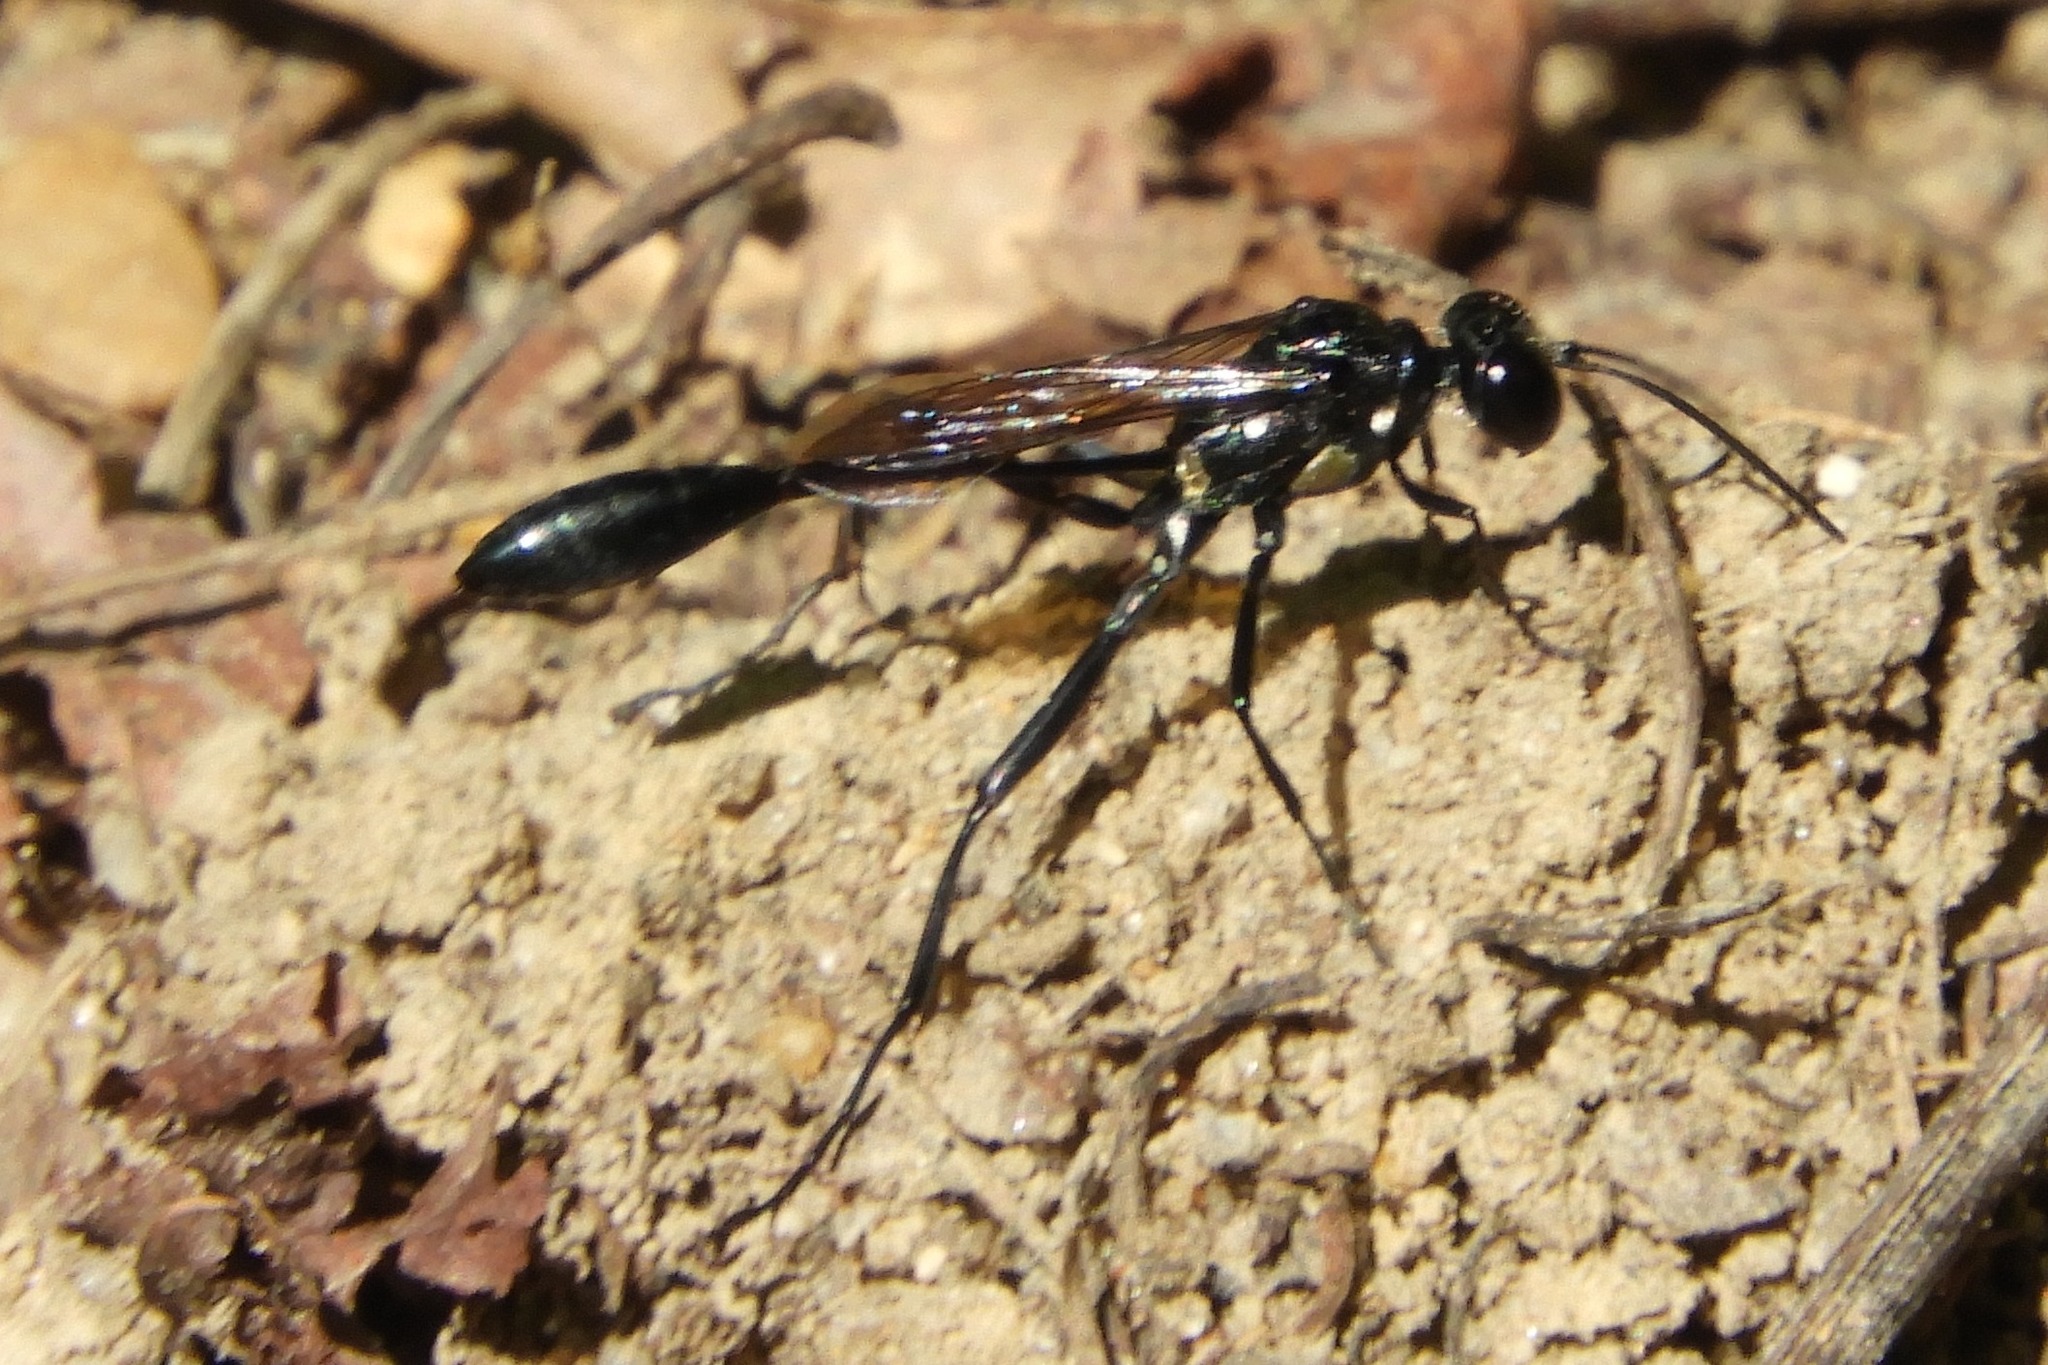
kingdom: Animalia
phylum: Arthropoda
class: Insecta
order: Hymenoptera
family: Sphecidae
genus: Eremnophila
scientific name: Eremnophila aureonotata
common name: Gold-marked thread-waisted wasp
